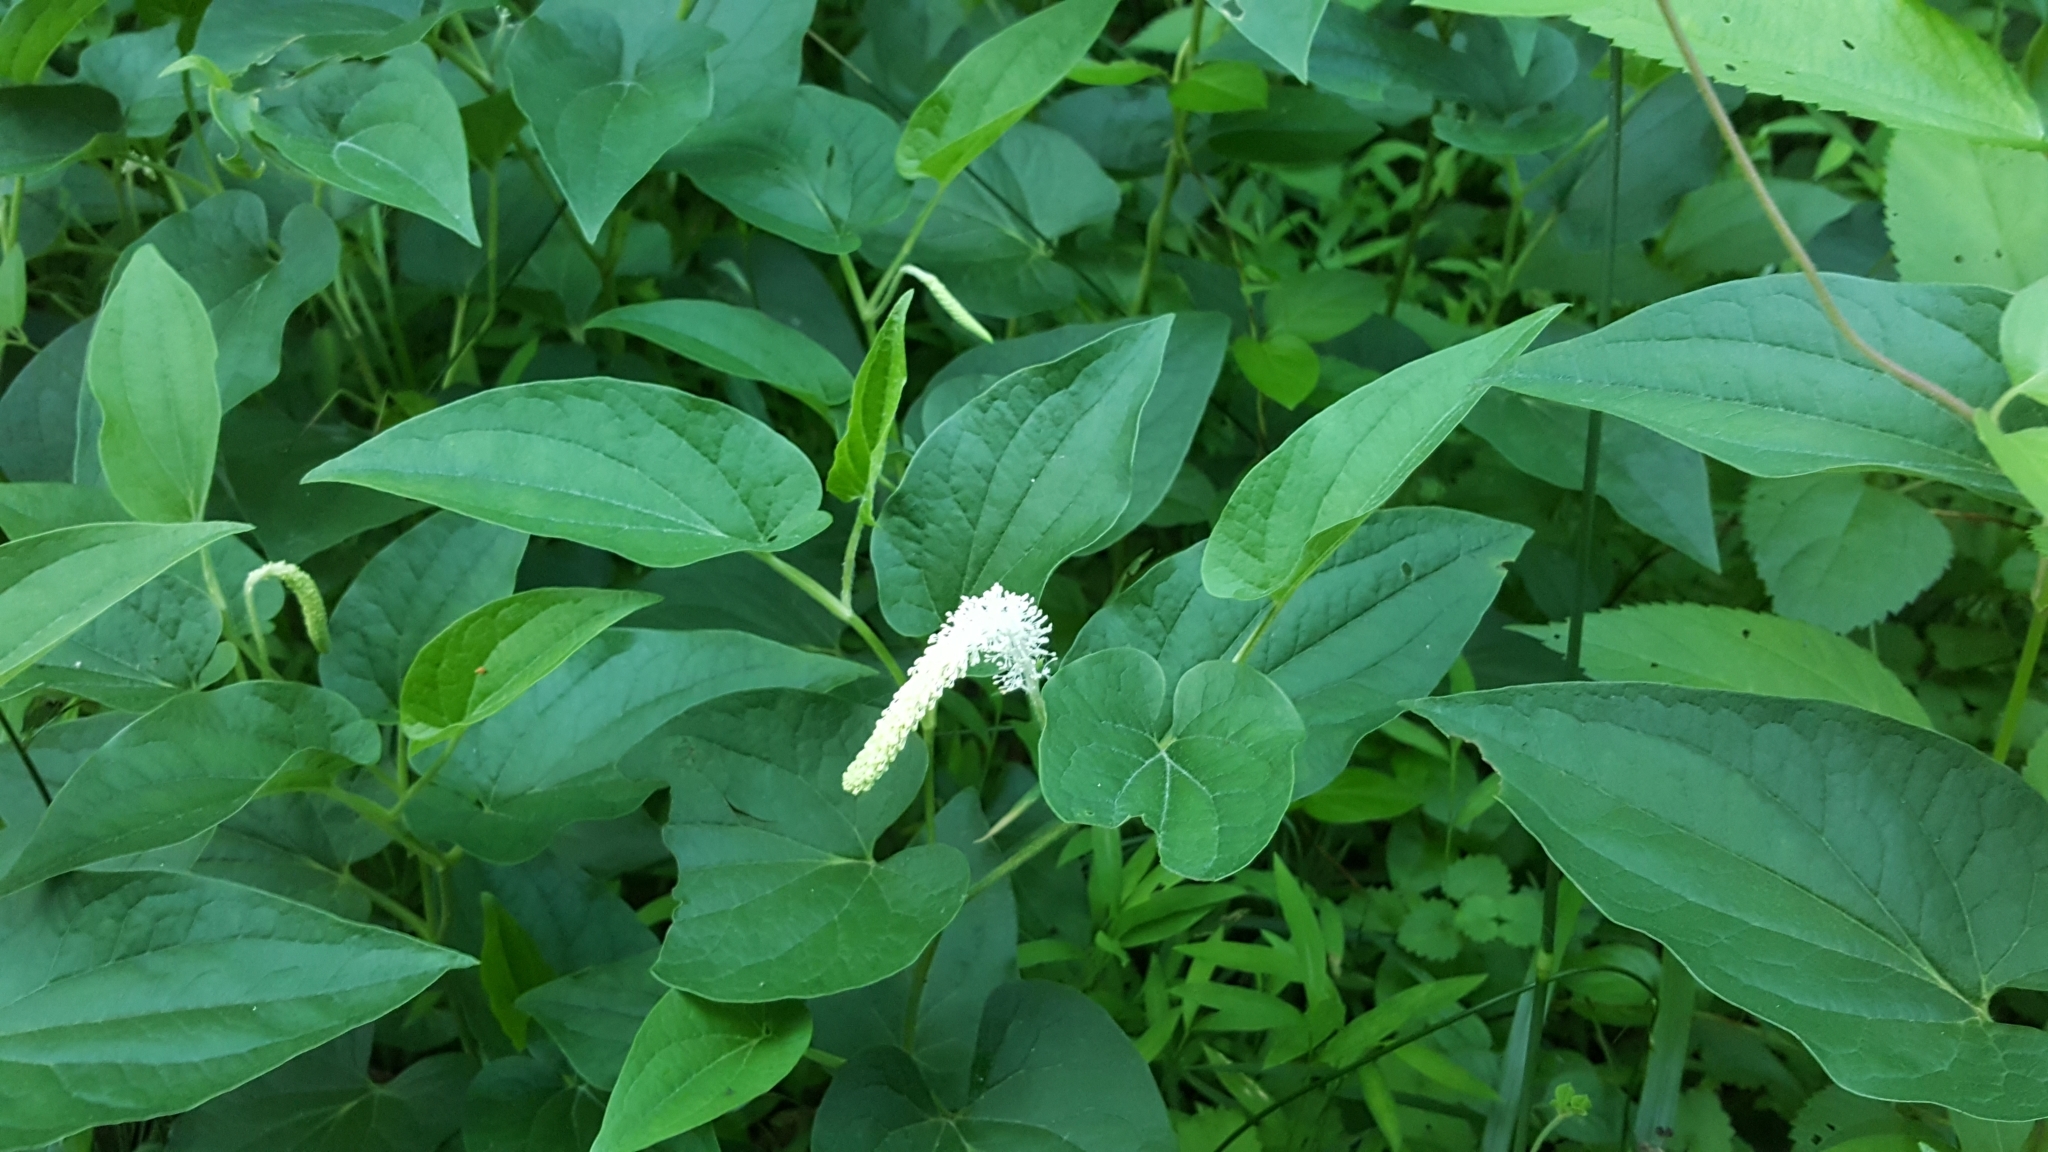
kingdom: Plantae
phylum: Tracheophyta
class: Magnoliopsida
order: Piperales
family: Saururaceae
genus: Saururus
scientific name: Saururus cernuus
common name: Lizard's-tail
